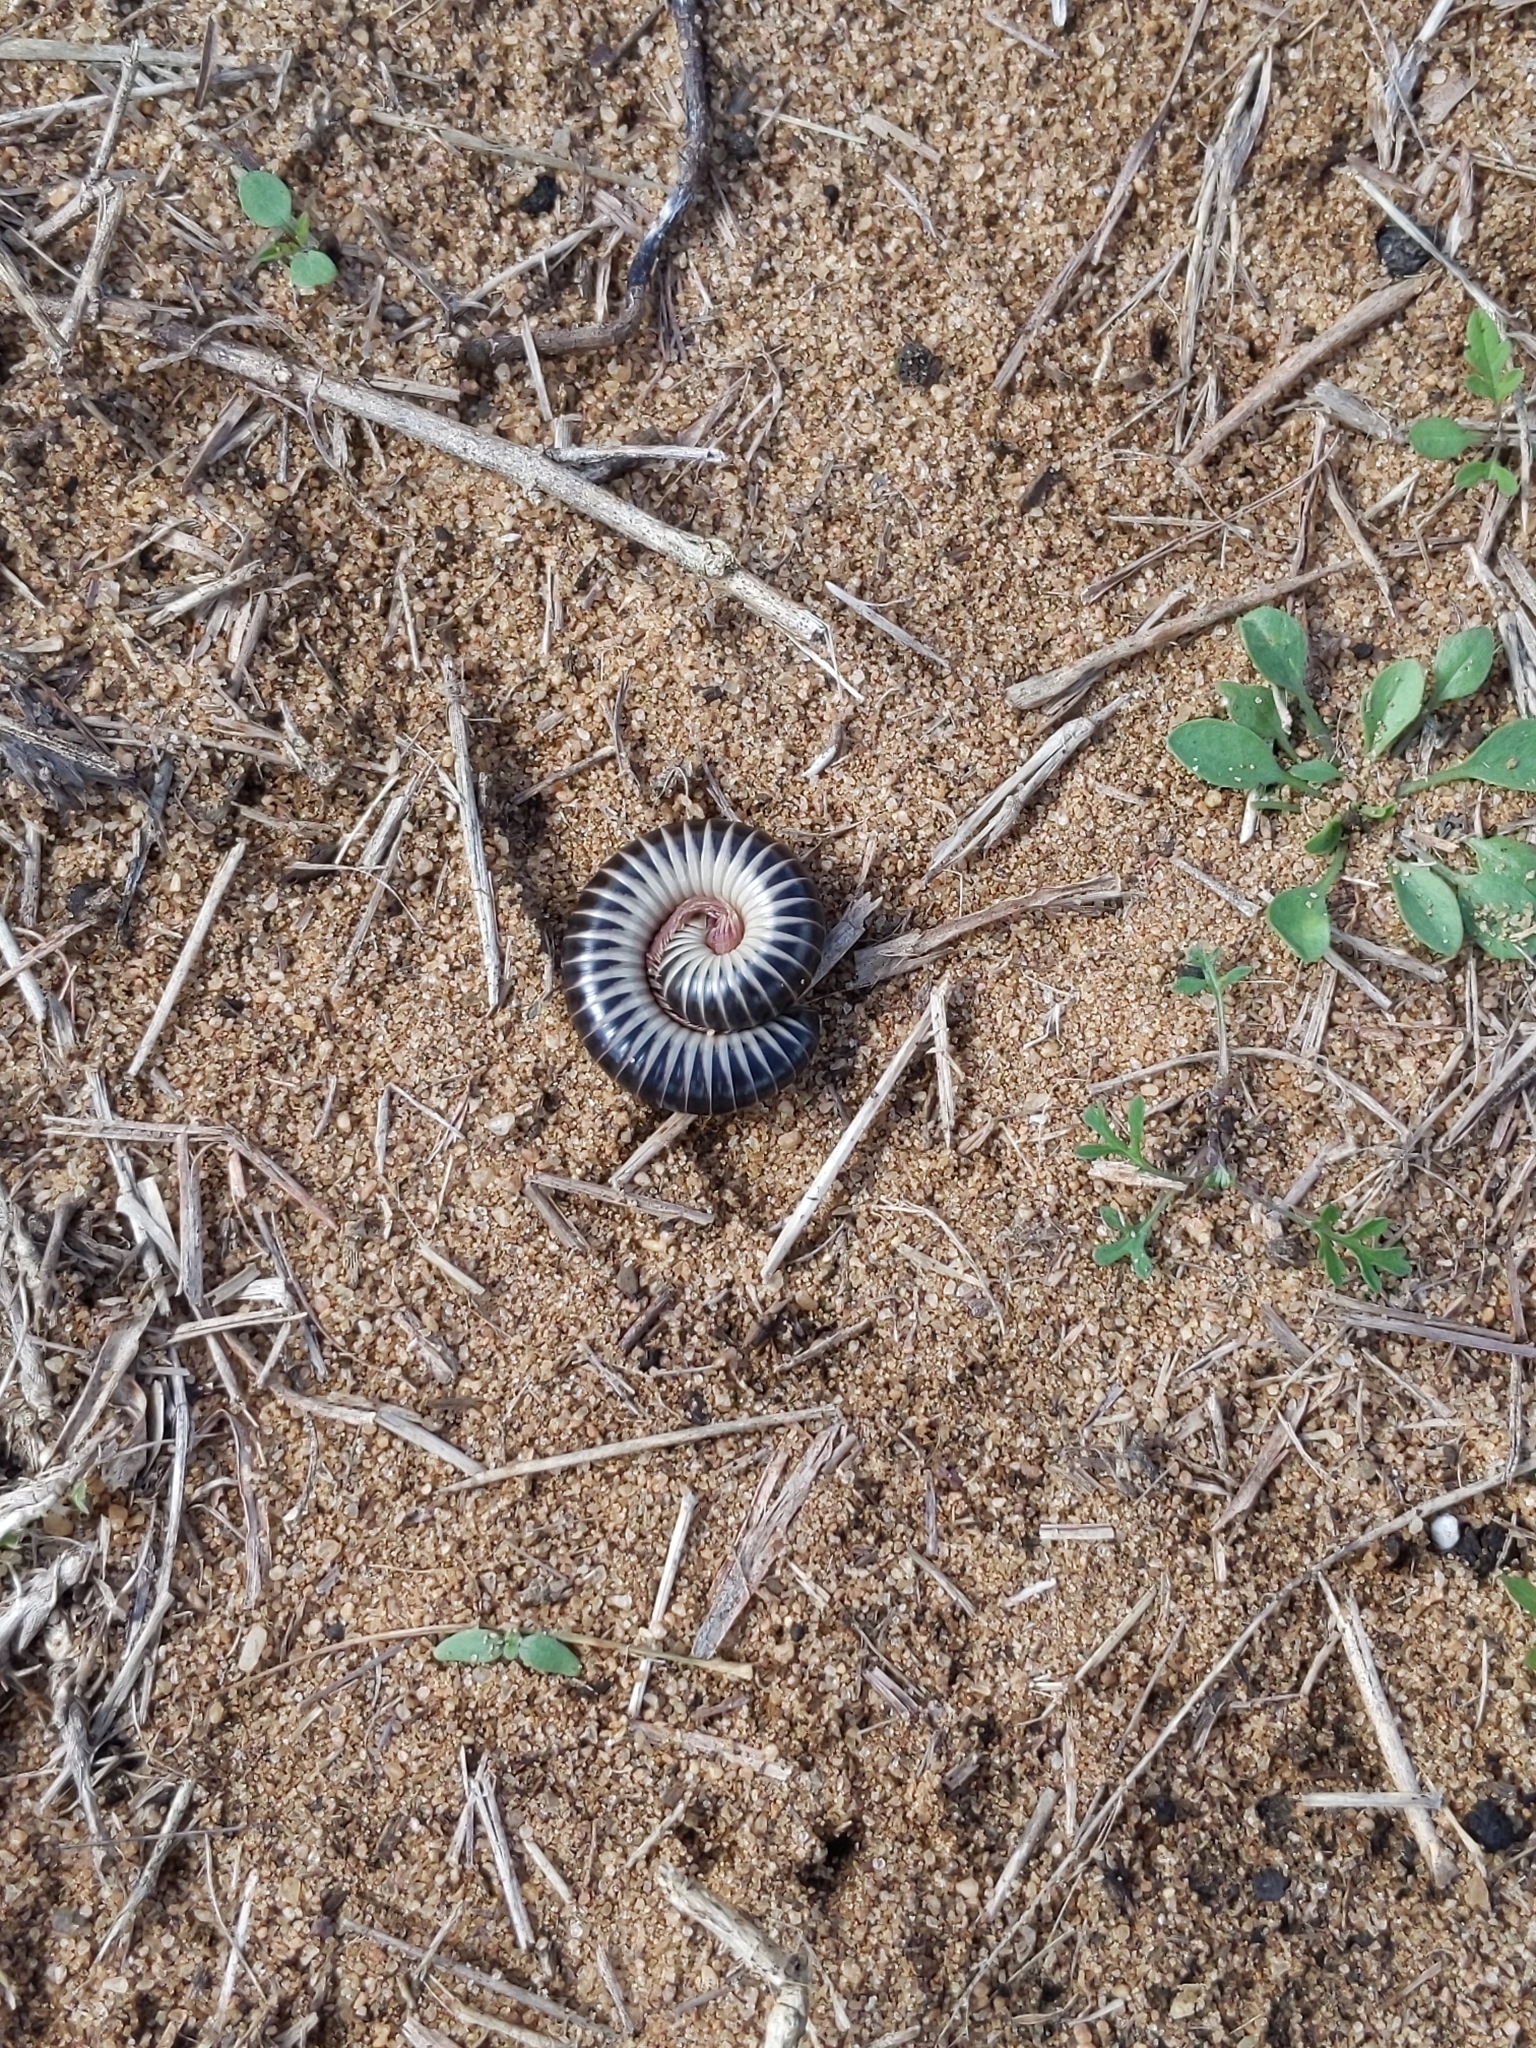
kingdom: Animalia
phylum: Arthropoda
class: Diplopoda
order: Spirobolida
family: Spirobolidae
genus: Chicobolus
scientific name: Chicobolus spinigerus
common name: Florida ivory millipede
